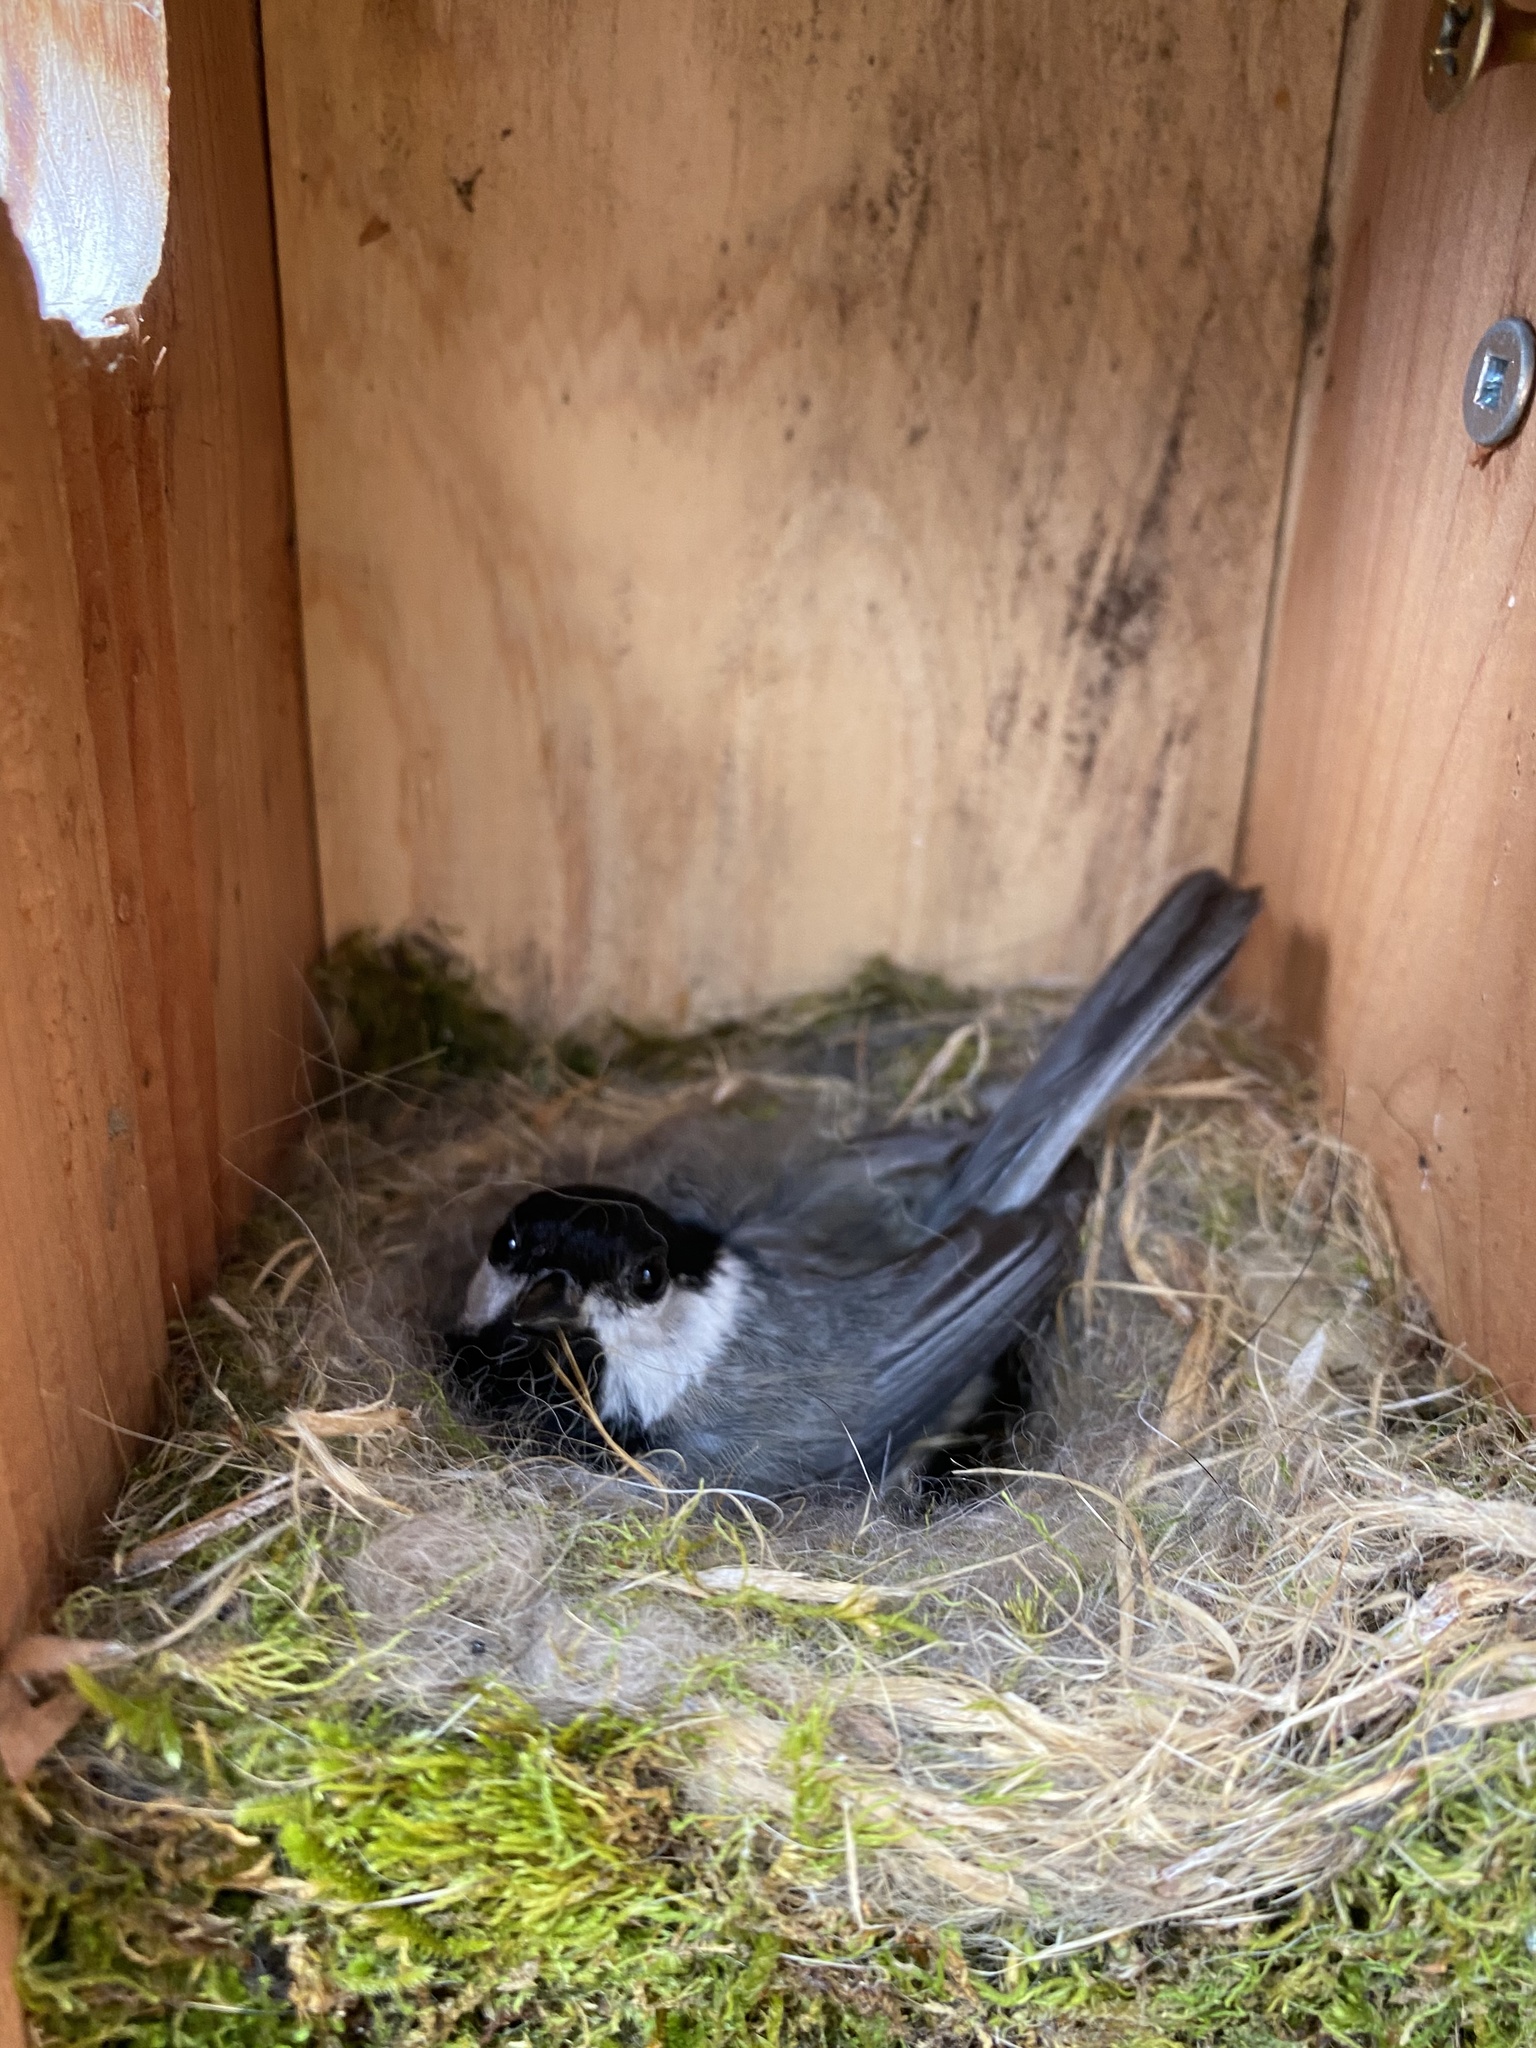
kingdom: Animalia
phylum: Chordata
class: Aves
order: Passeriformes
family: Paridae
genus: Poecile
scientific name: Poecile carolinensis
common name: Carolina chickadee
